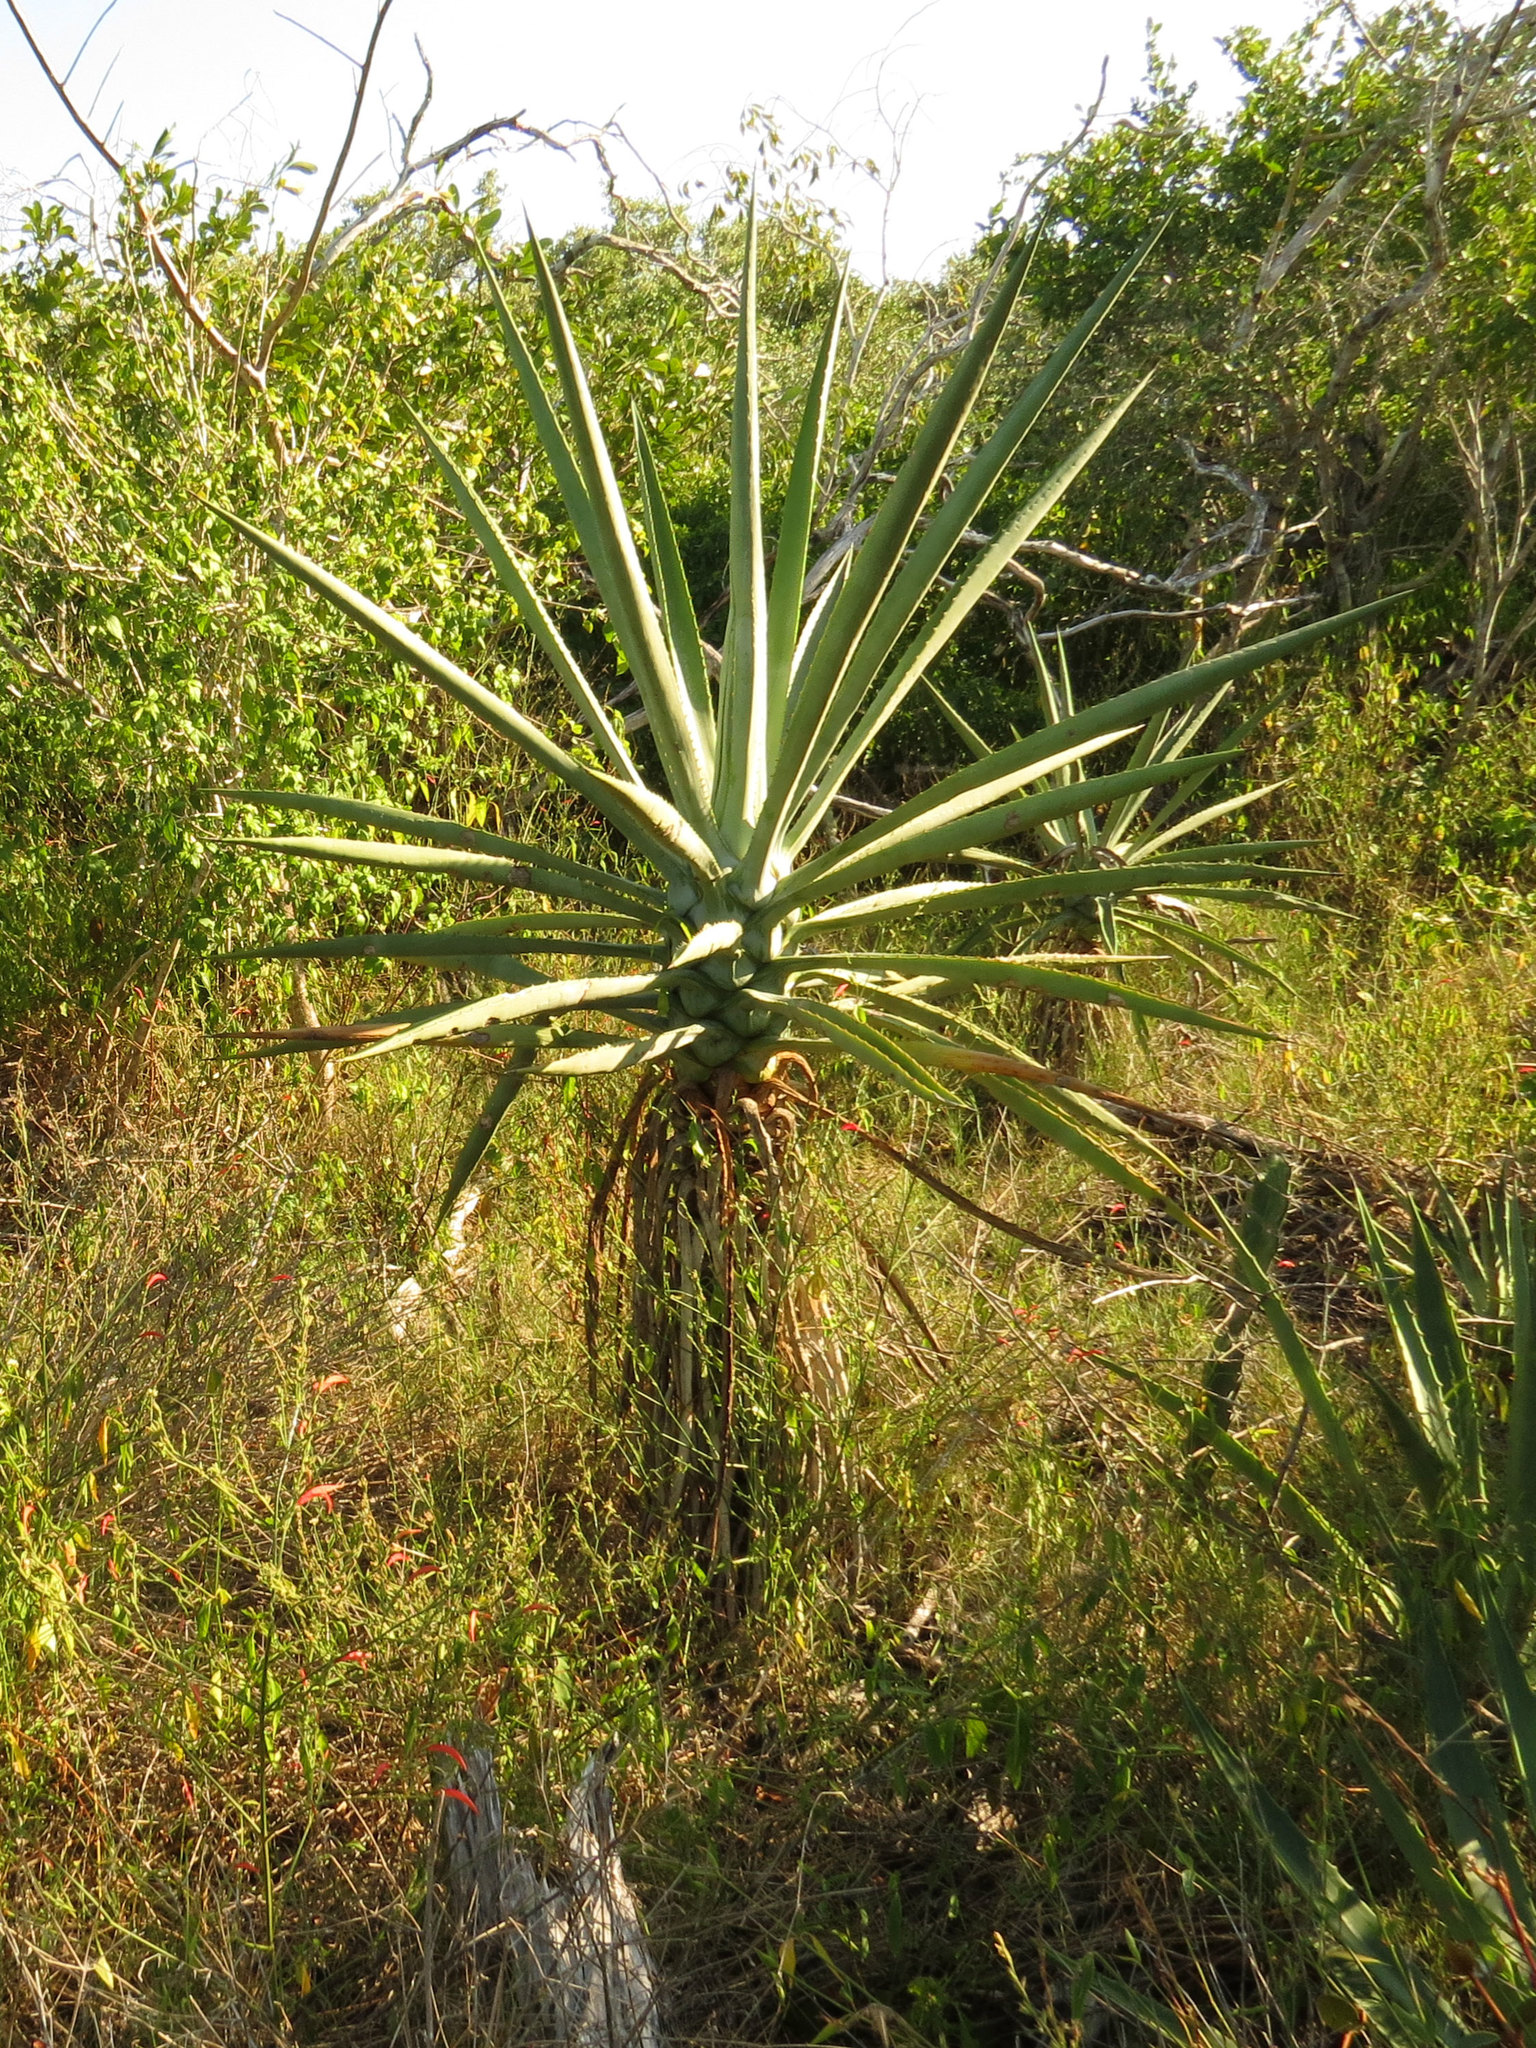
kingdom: Plantae
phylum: Tracheophyta
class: Liliopsida
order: Asparagales
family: Asparagaceae
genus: Agave
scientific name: Agave fourcroydes
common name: Henequen
